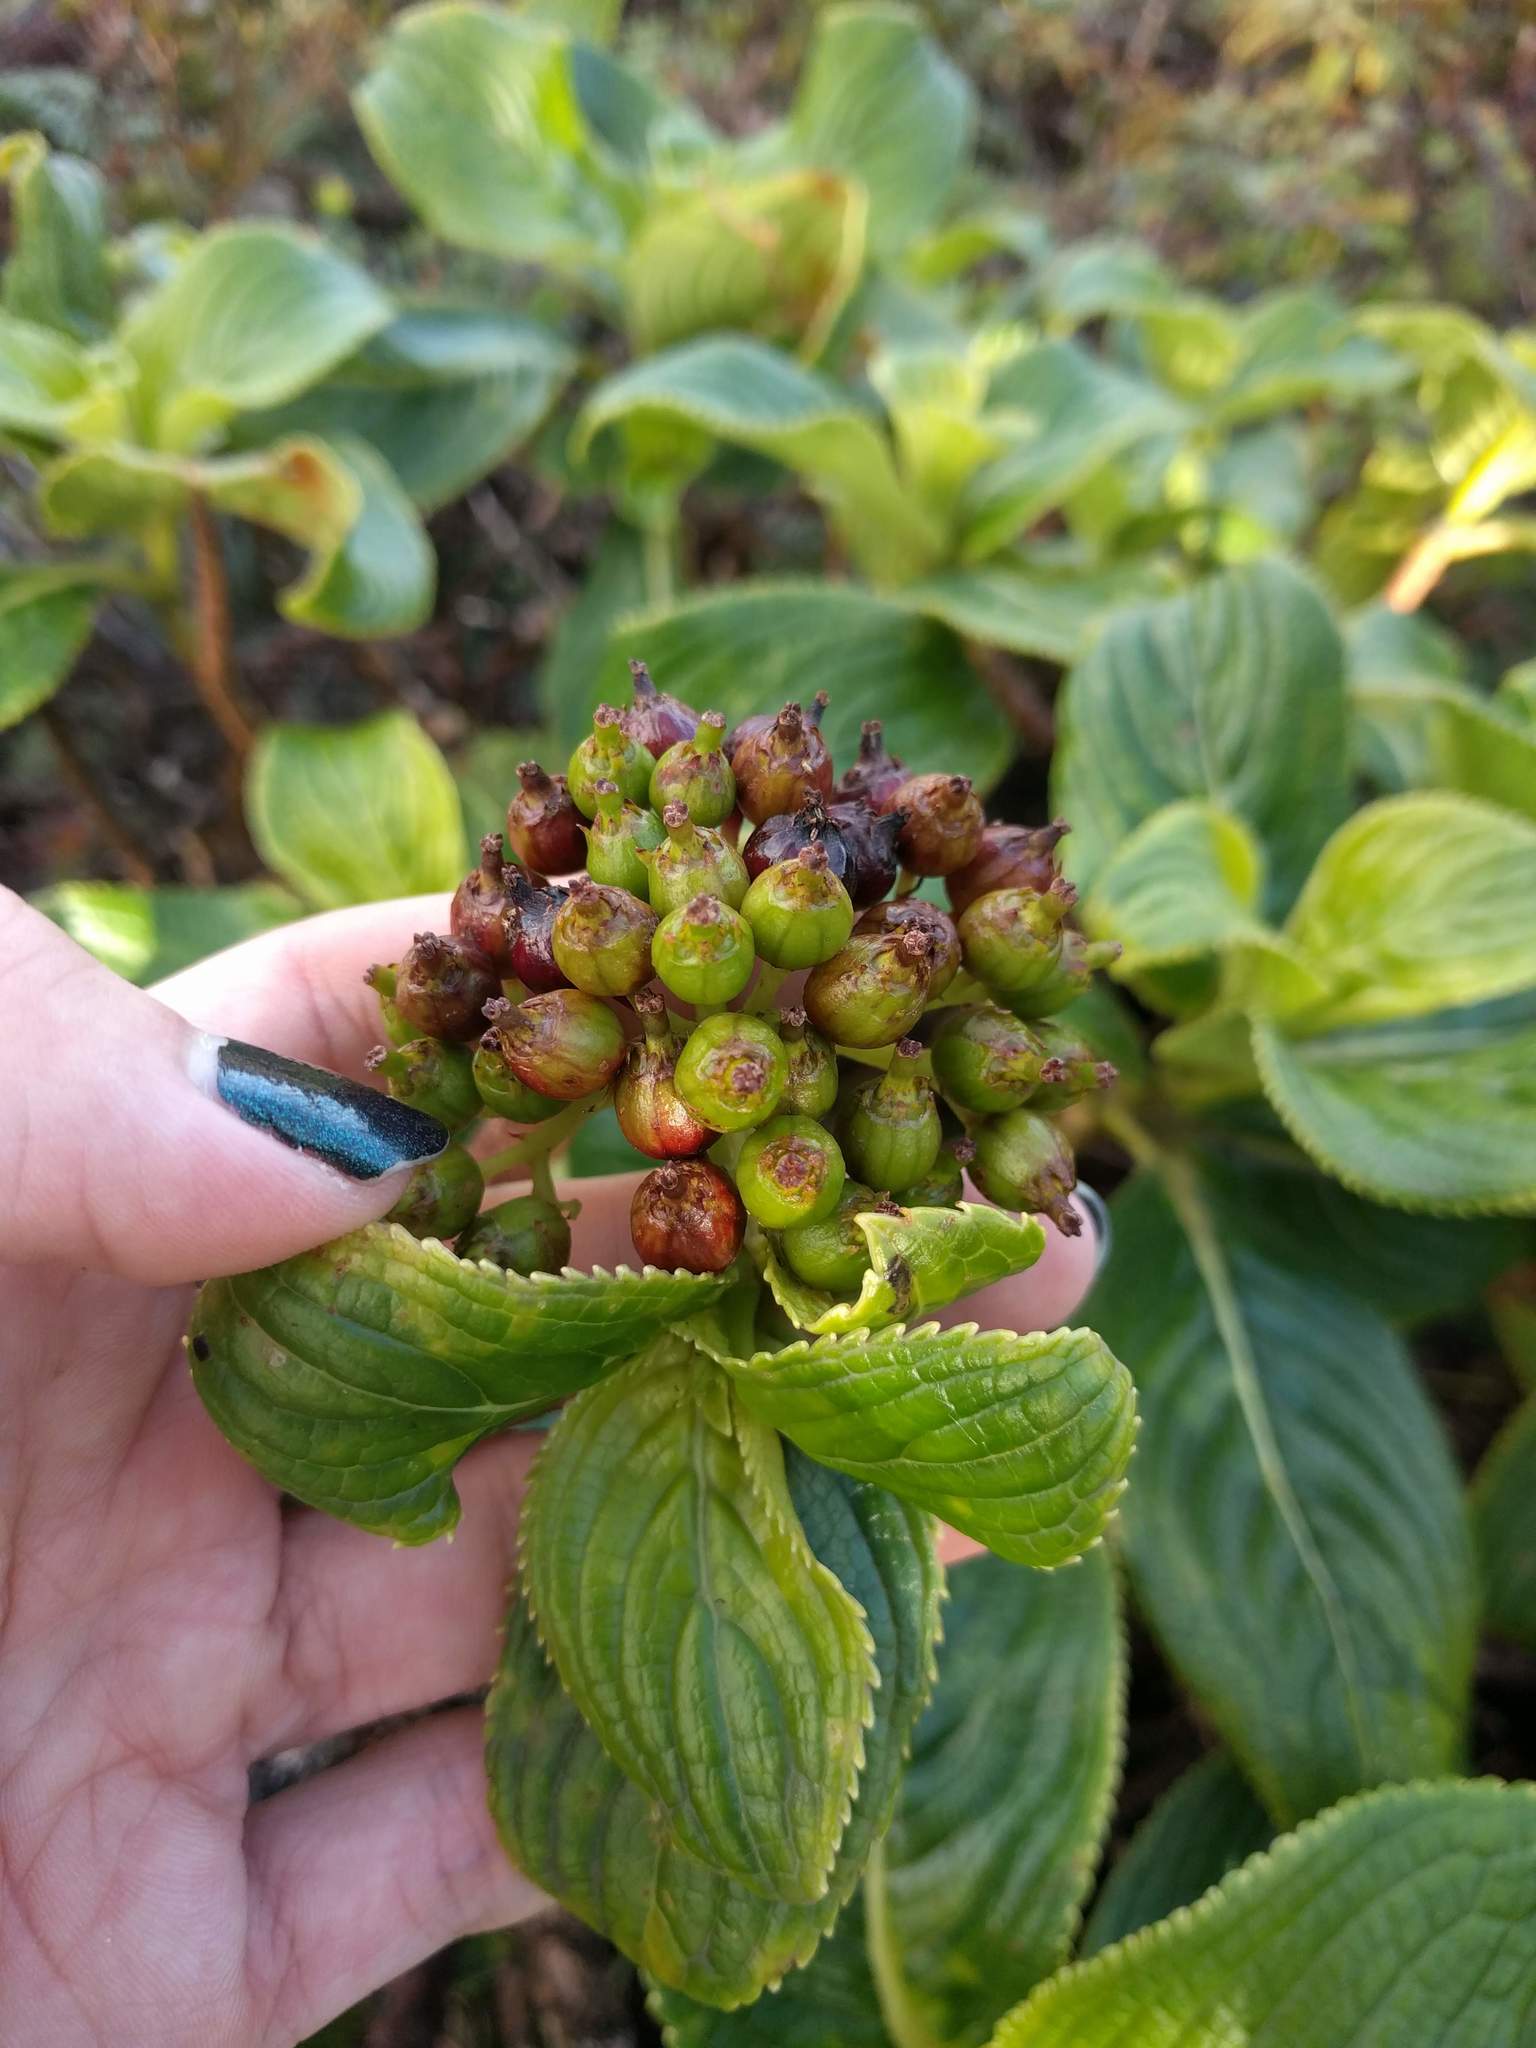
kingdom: Plantae
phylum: Tracheophyta
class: Magnoliopsida
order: Cornales
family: Hydrangeaceae
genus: Hydrangea
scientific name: Hydrangea arguta
